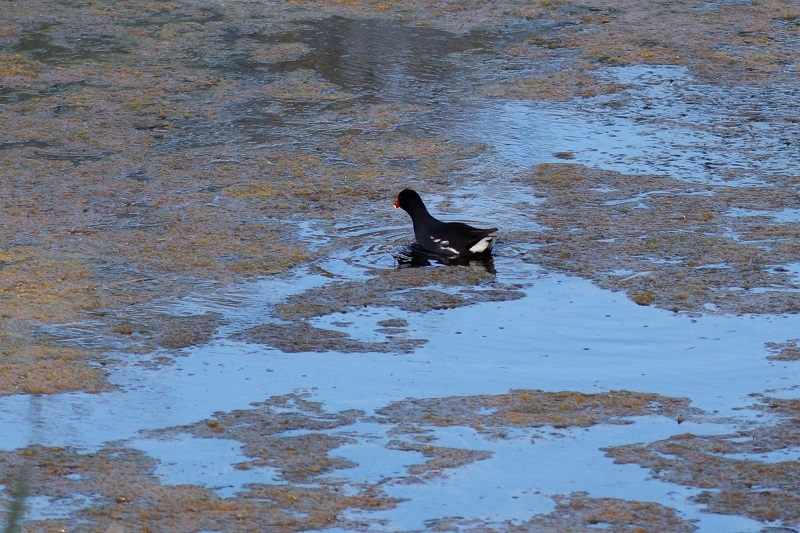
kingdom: Animalia
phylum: Chordata
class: Aves
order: Gruiformes
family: Rallidae
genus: Gallinula
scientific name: Gallinula chloropus
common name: Common moorhen
